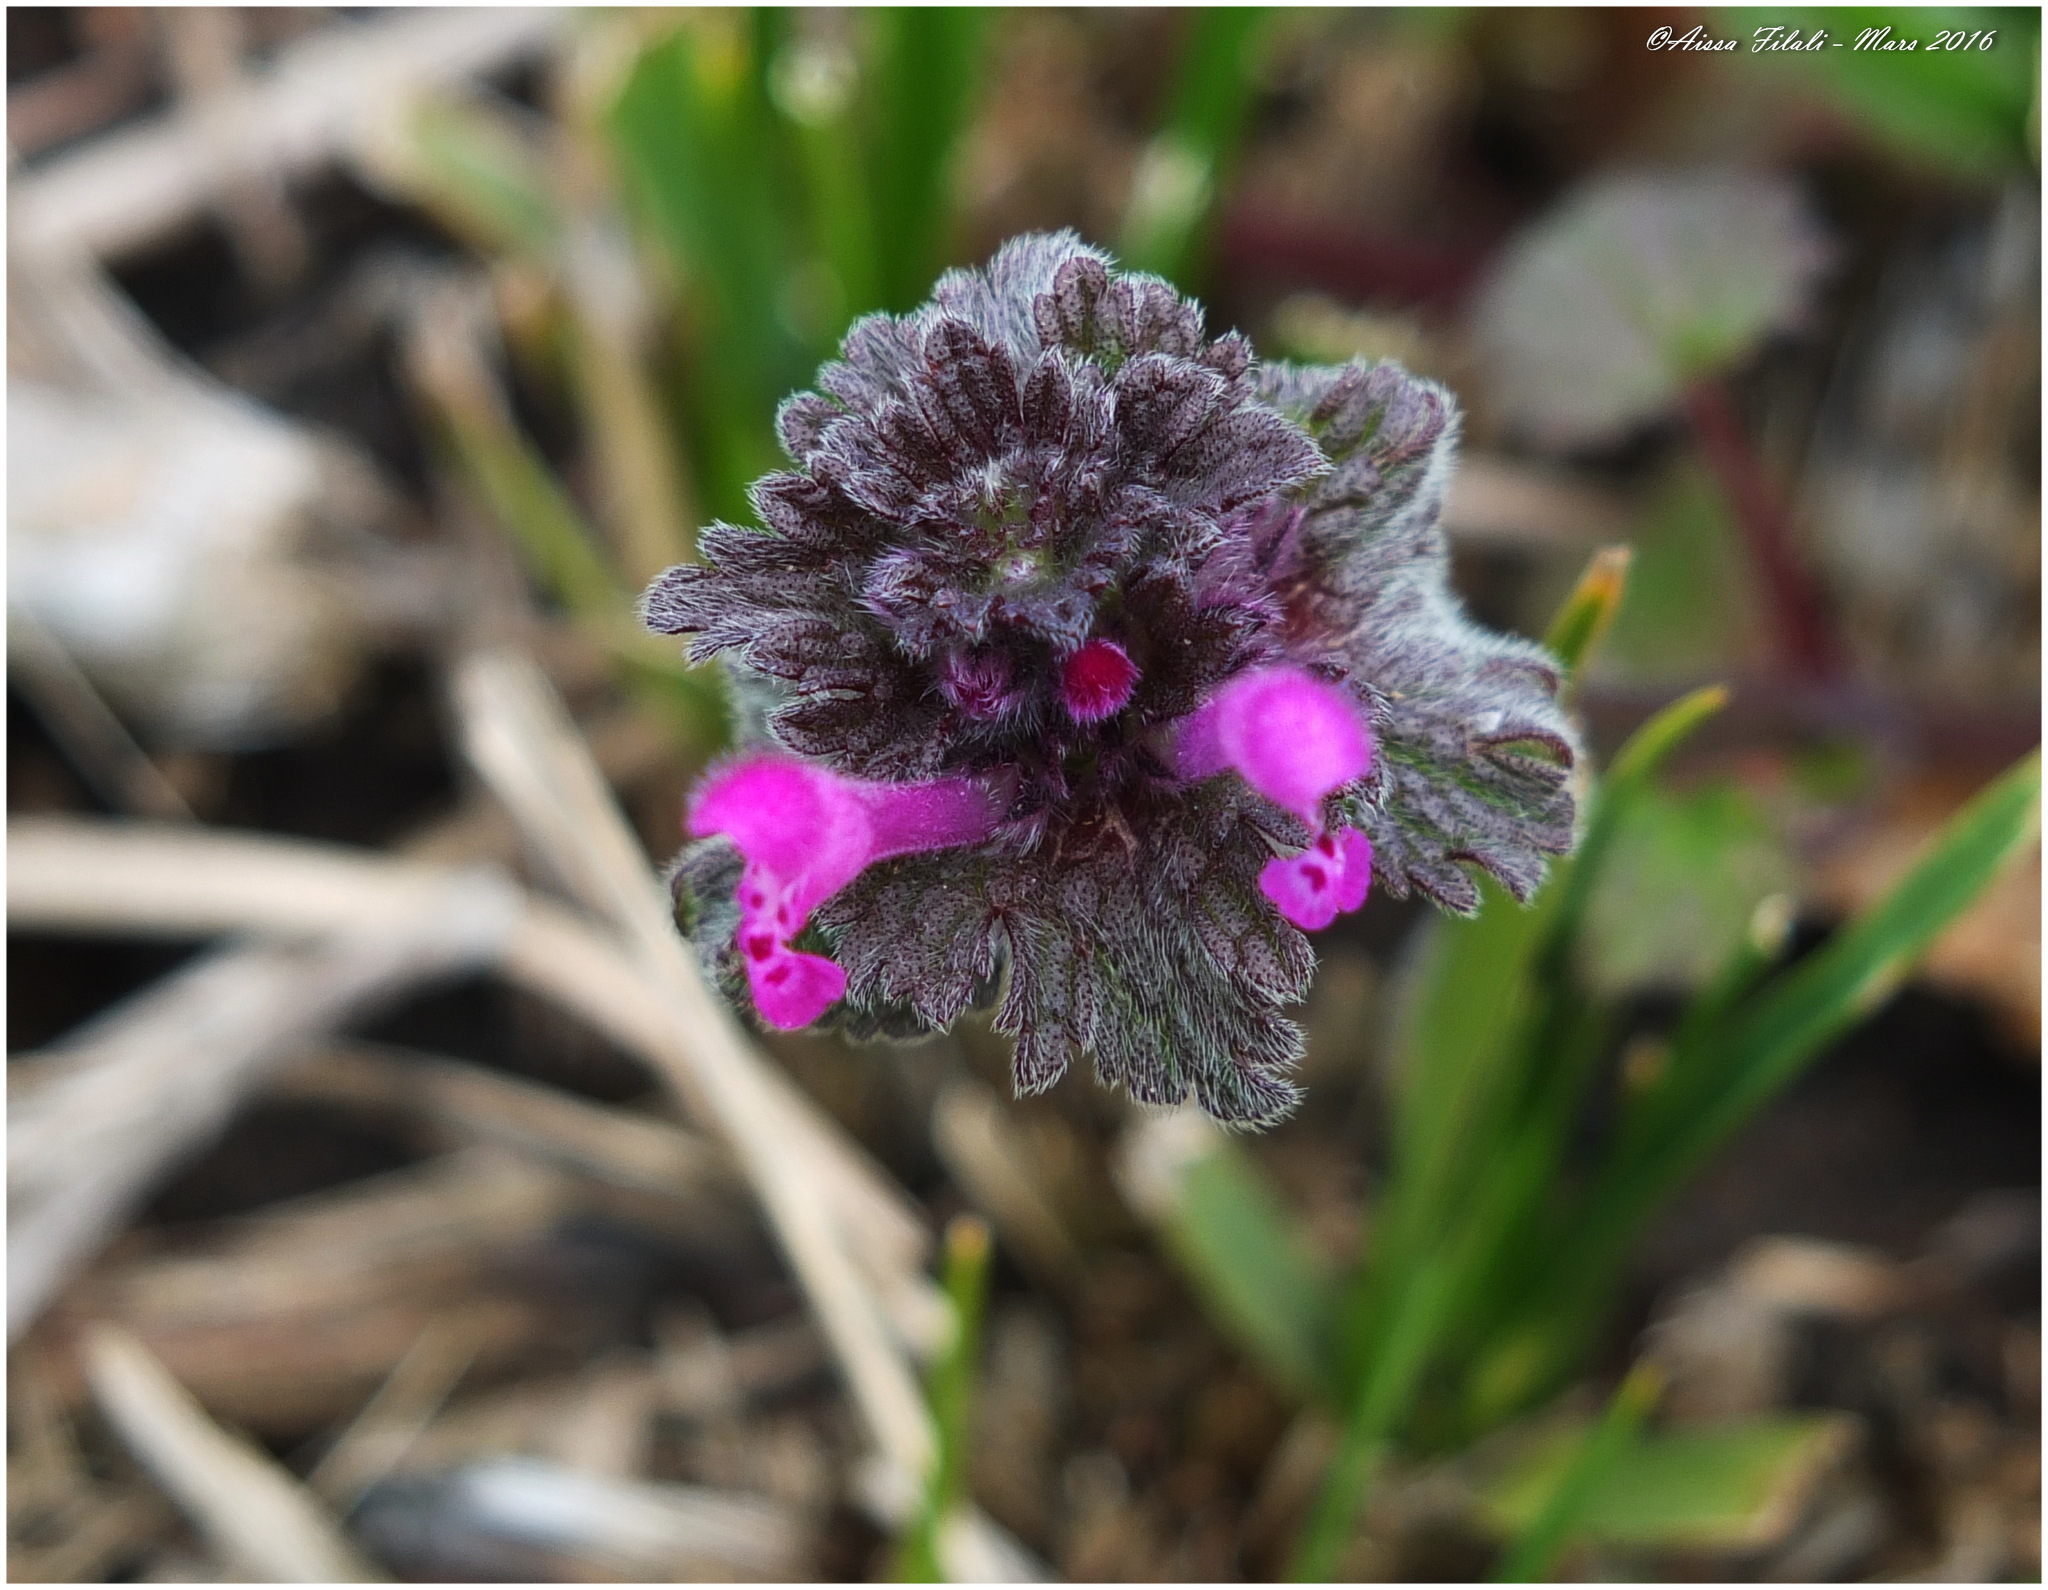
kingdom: Plantae
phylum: Tracheophyta
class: Magnoliopsida
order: Lamiales
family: Lamiaceae
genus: Lamium
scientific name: Lamium amplexicaule
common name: Henbit dead-nettle
